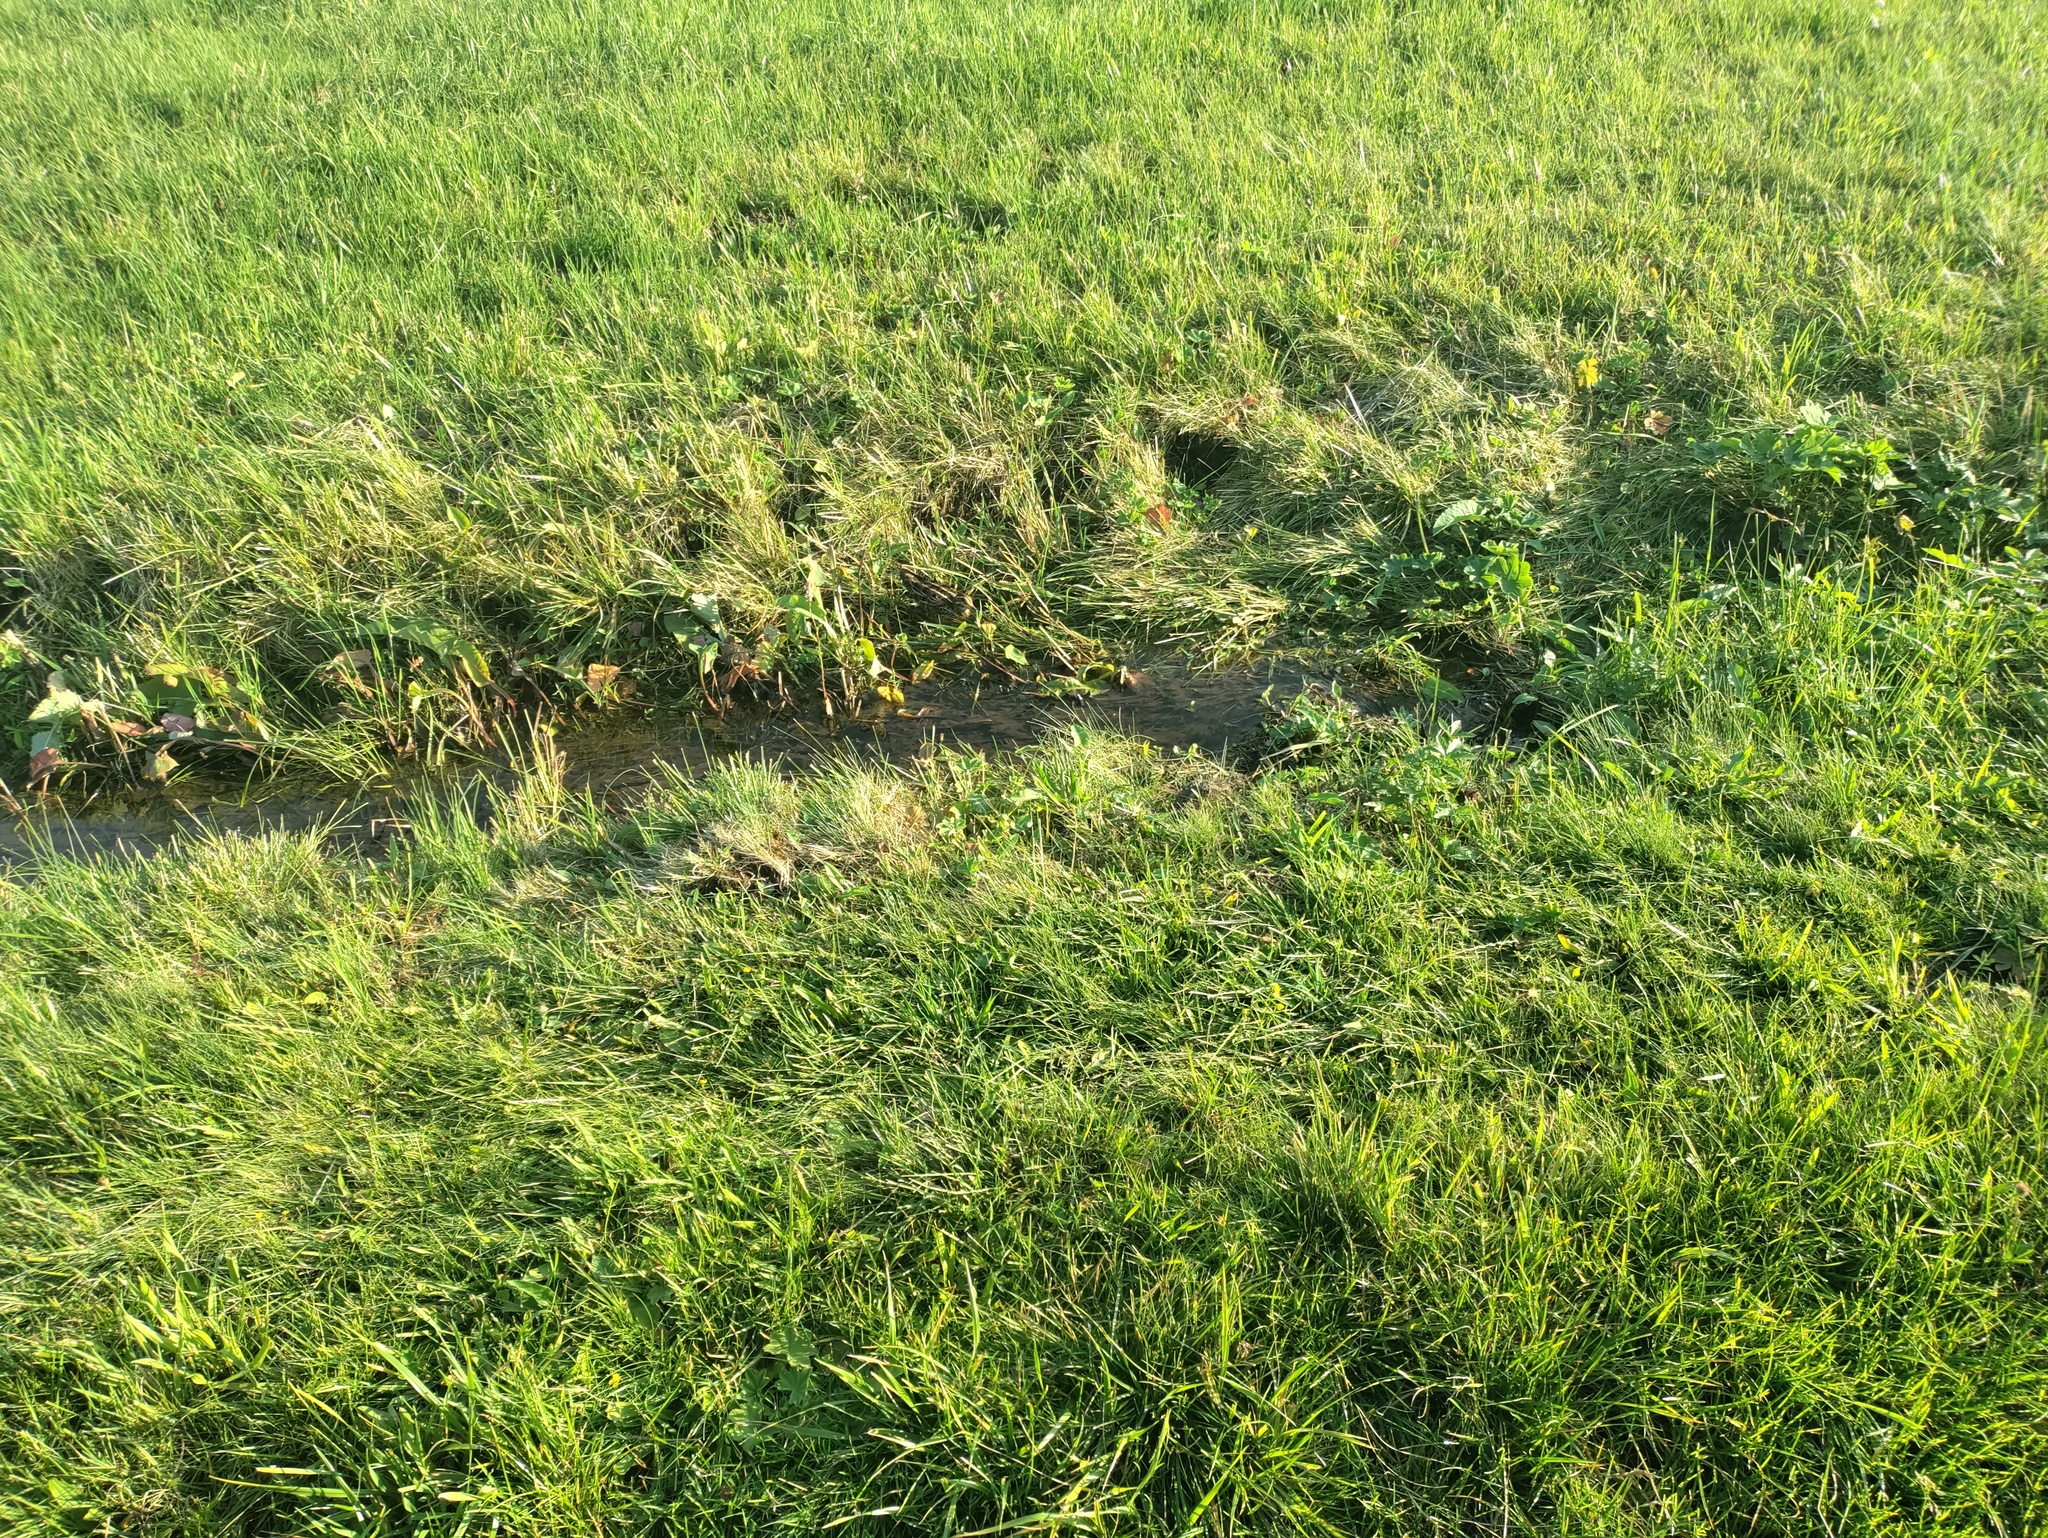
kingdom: Animalia
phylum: Chordata
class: Aves
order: Charadriiformes
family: Scolopacidae
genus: Gallinago
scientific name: Gallinago gallinago
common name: Common snipe
